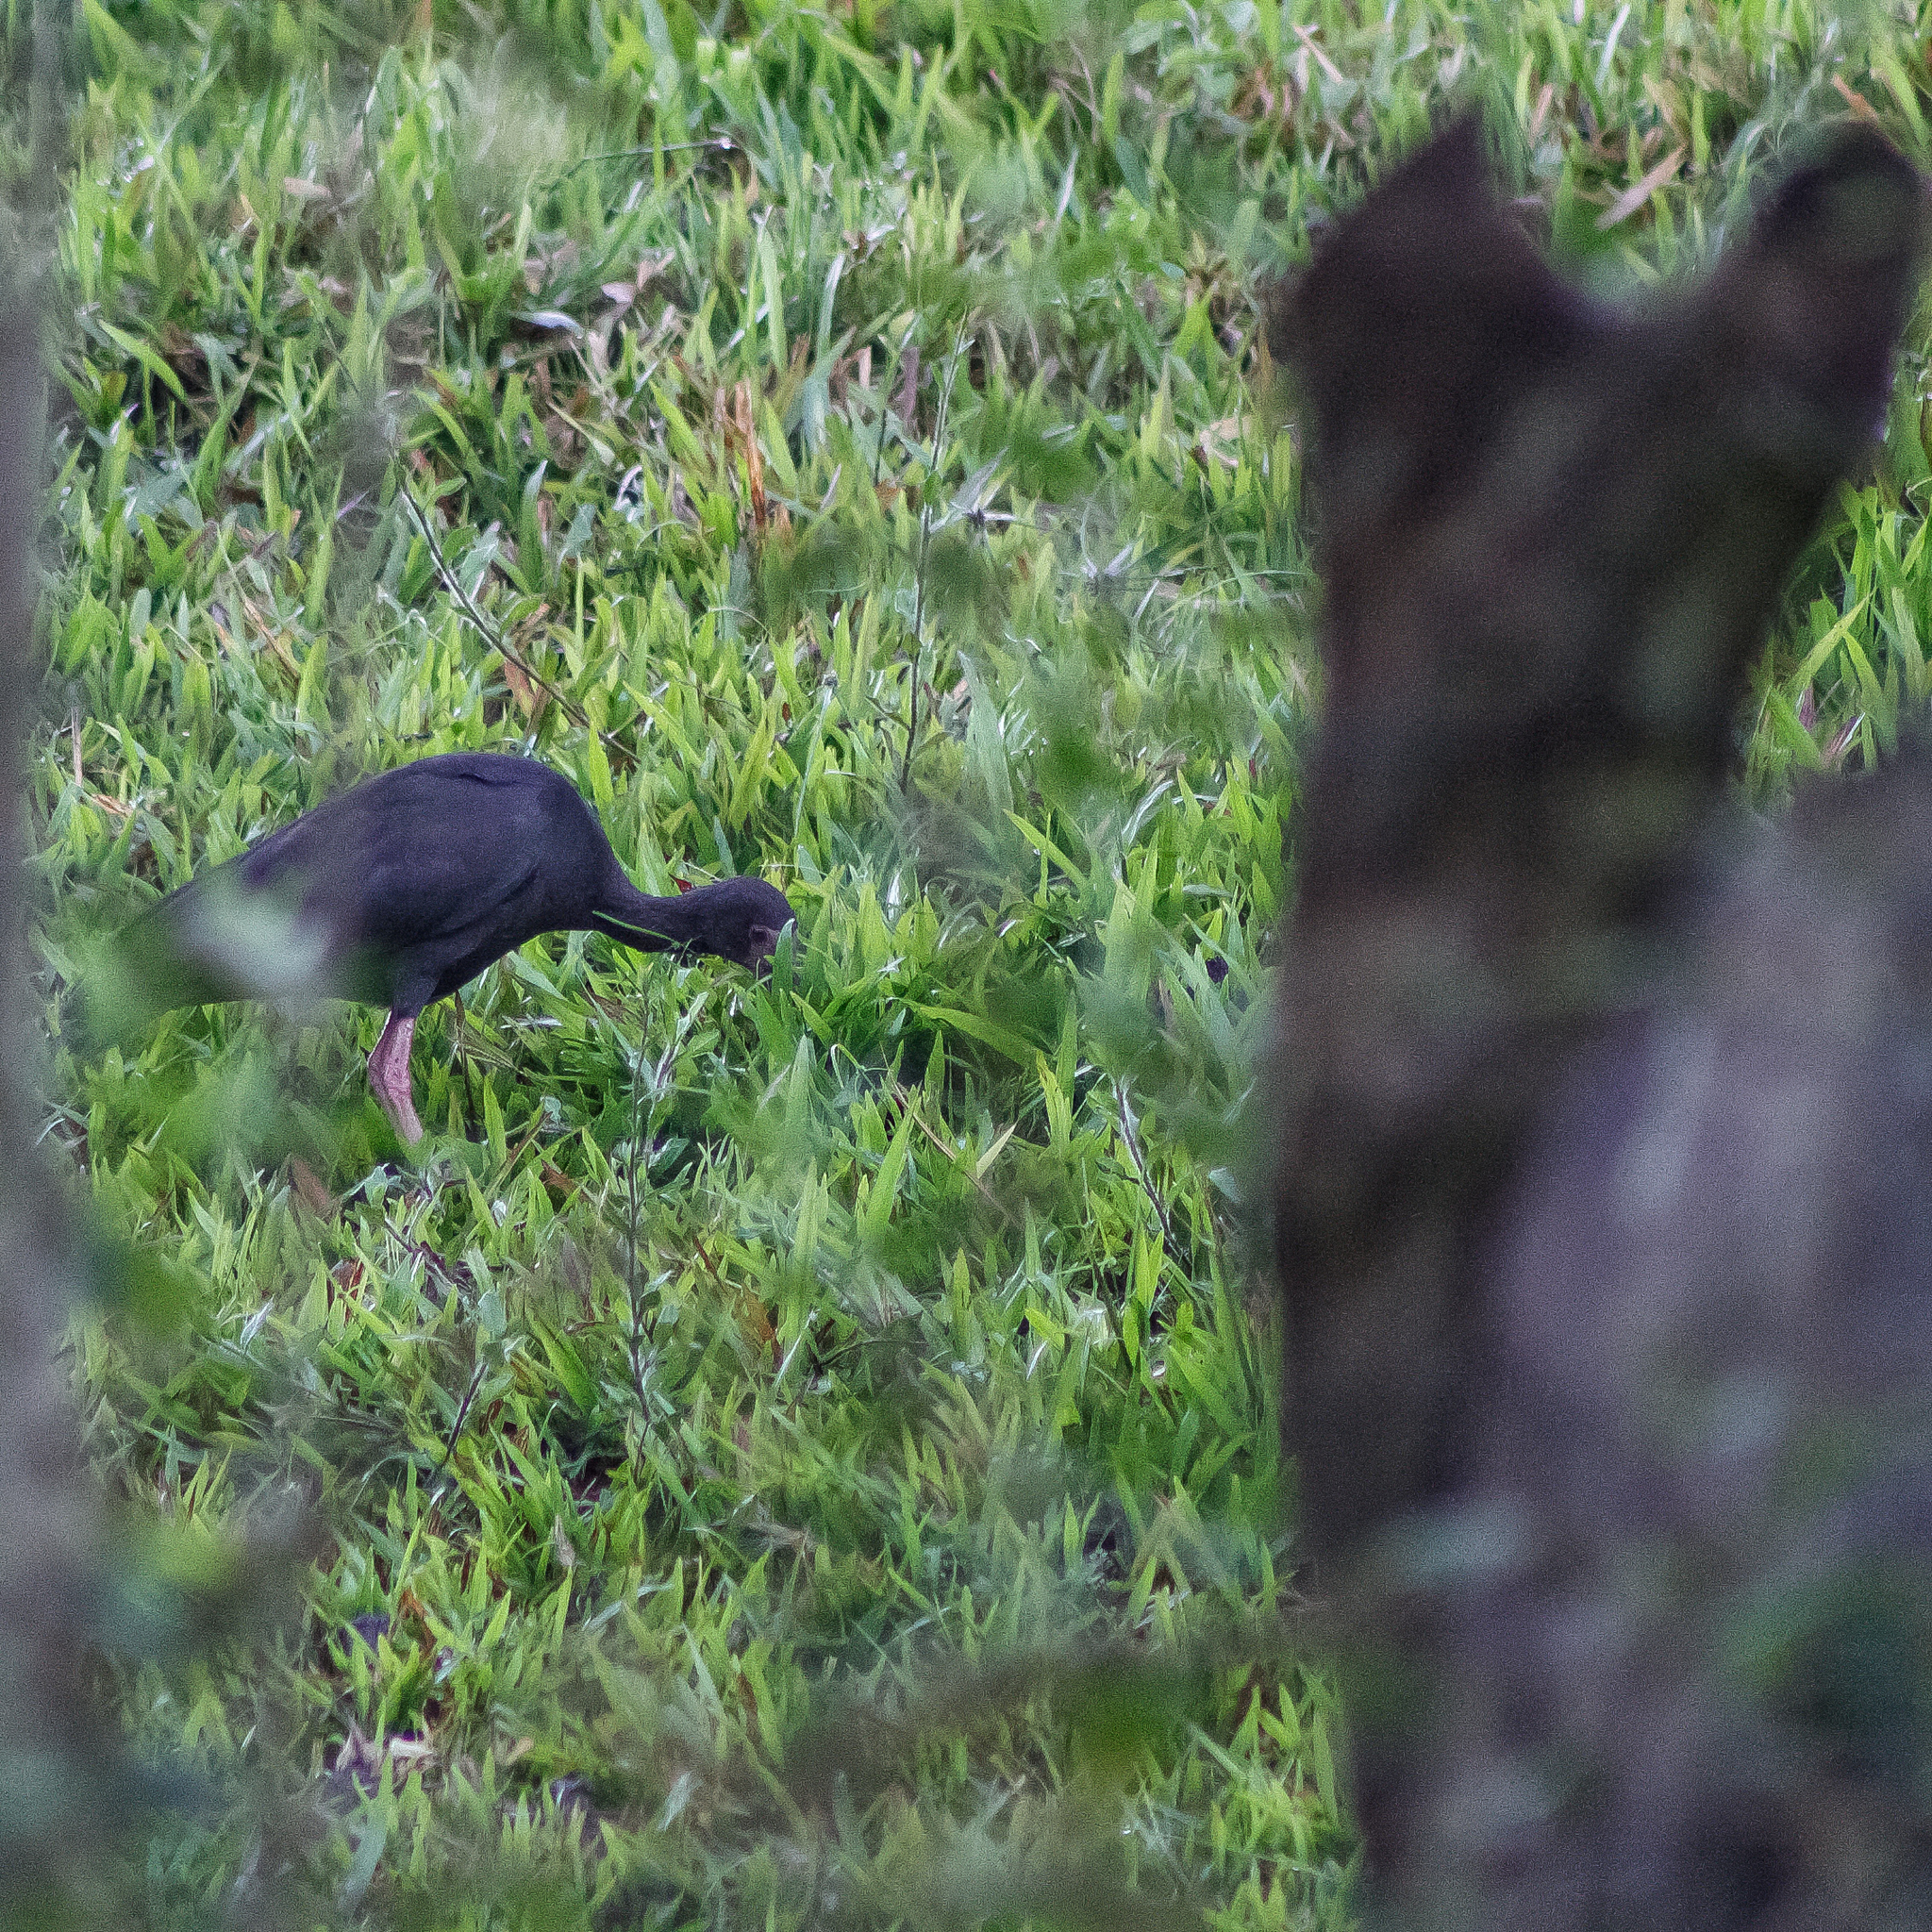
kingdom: Animalia
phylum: Chordata
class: Aves
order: Pelecaniformes
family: Threskiornithidae
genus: Phimosus
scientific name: Phimosus infuscatus
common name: Bare-faced ibis
